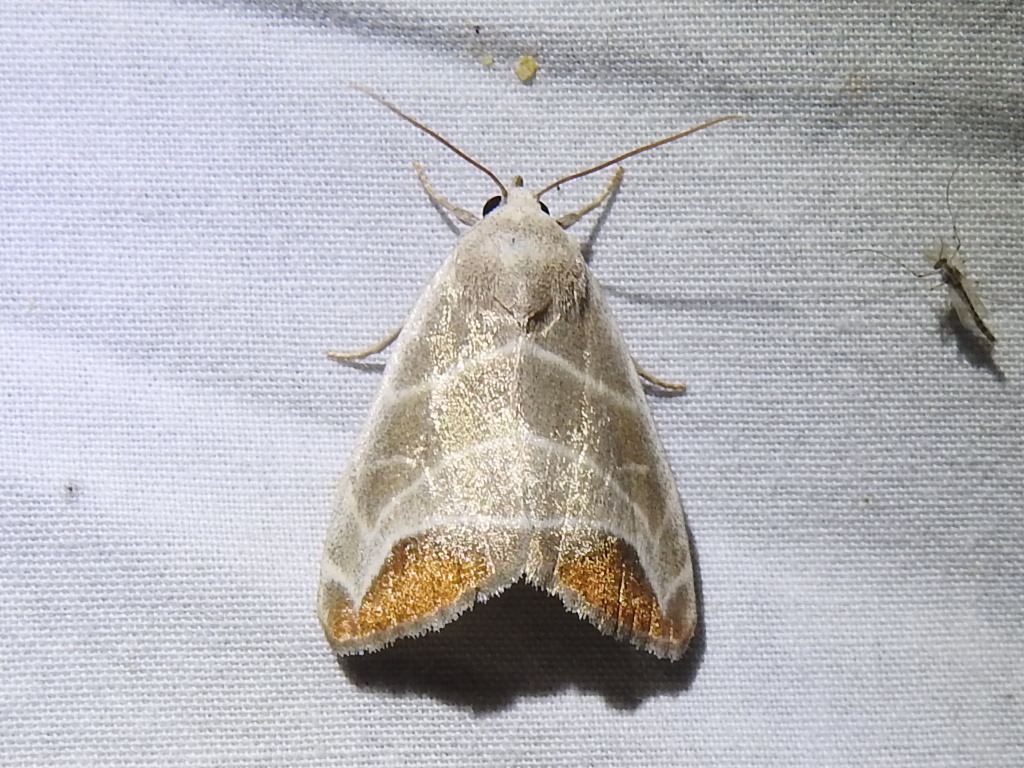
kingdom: Animalia
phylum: Arthropoda
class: Insecta
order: Lepidoptera
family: Noctuidae
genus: Bagisara
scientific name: Bagisara praecelsa
